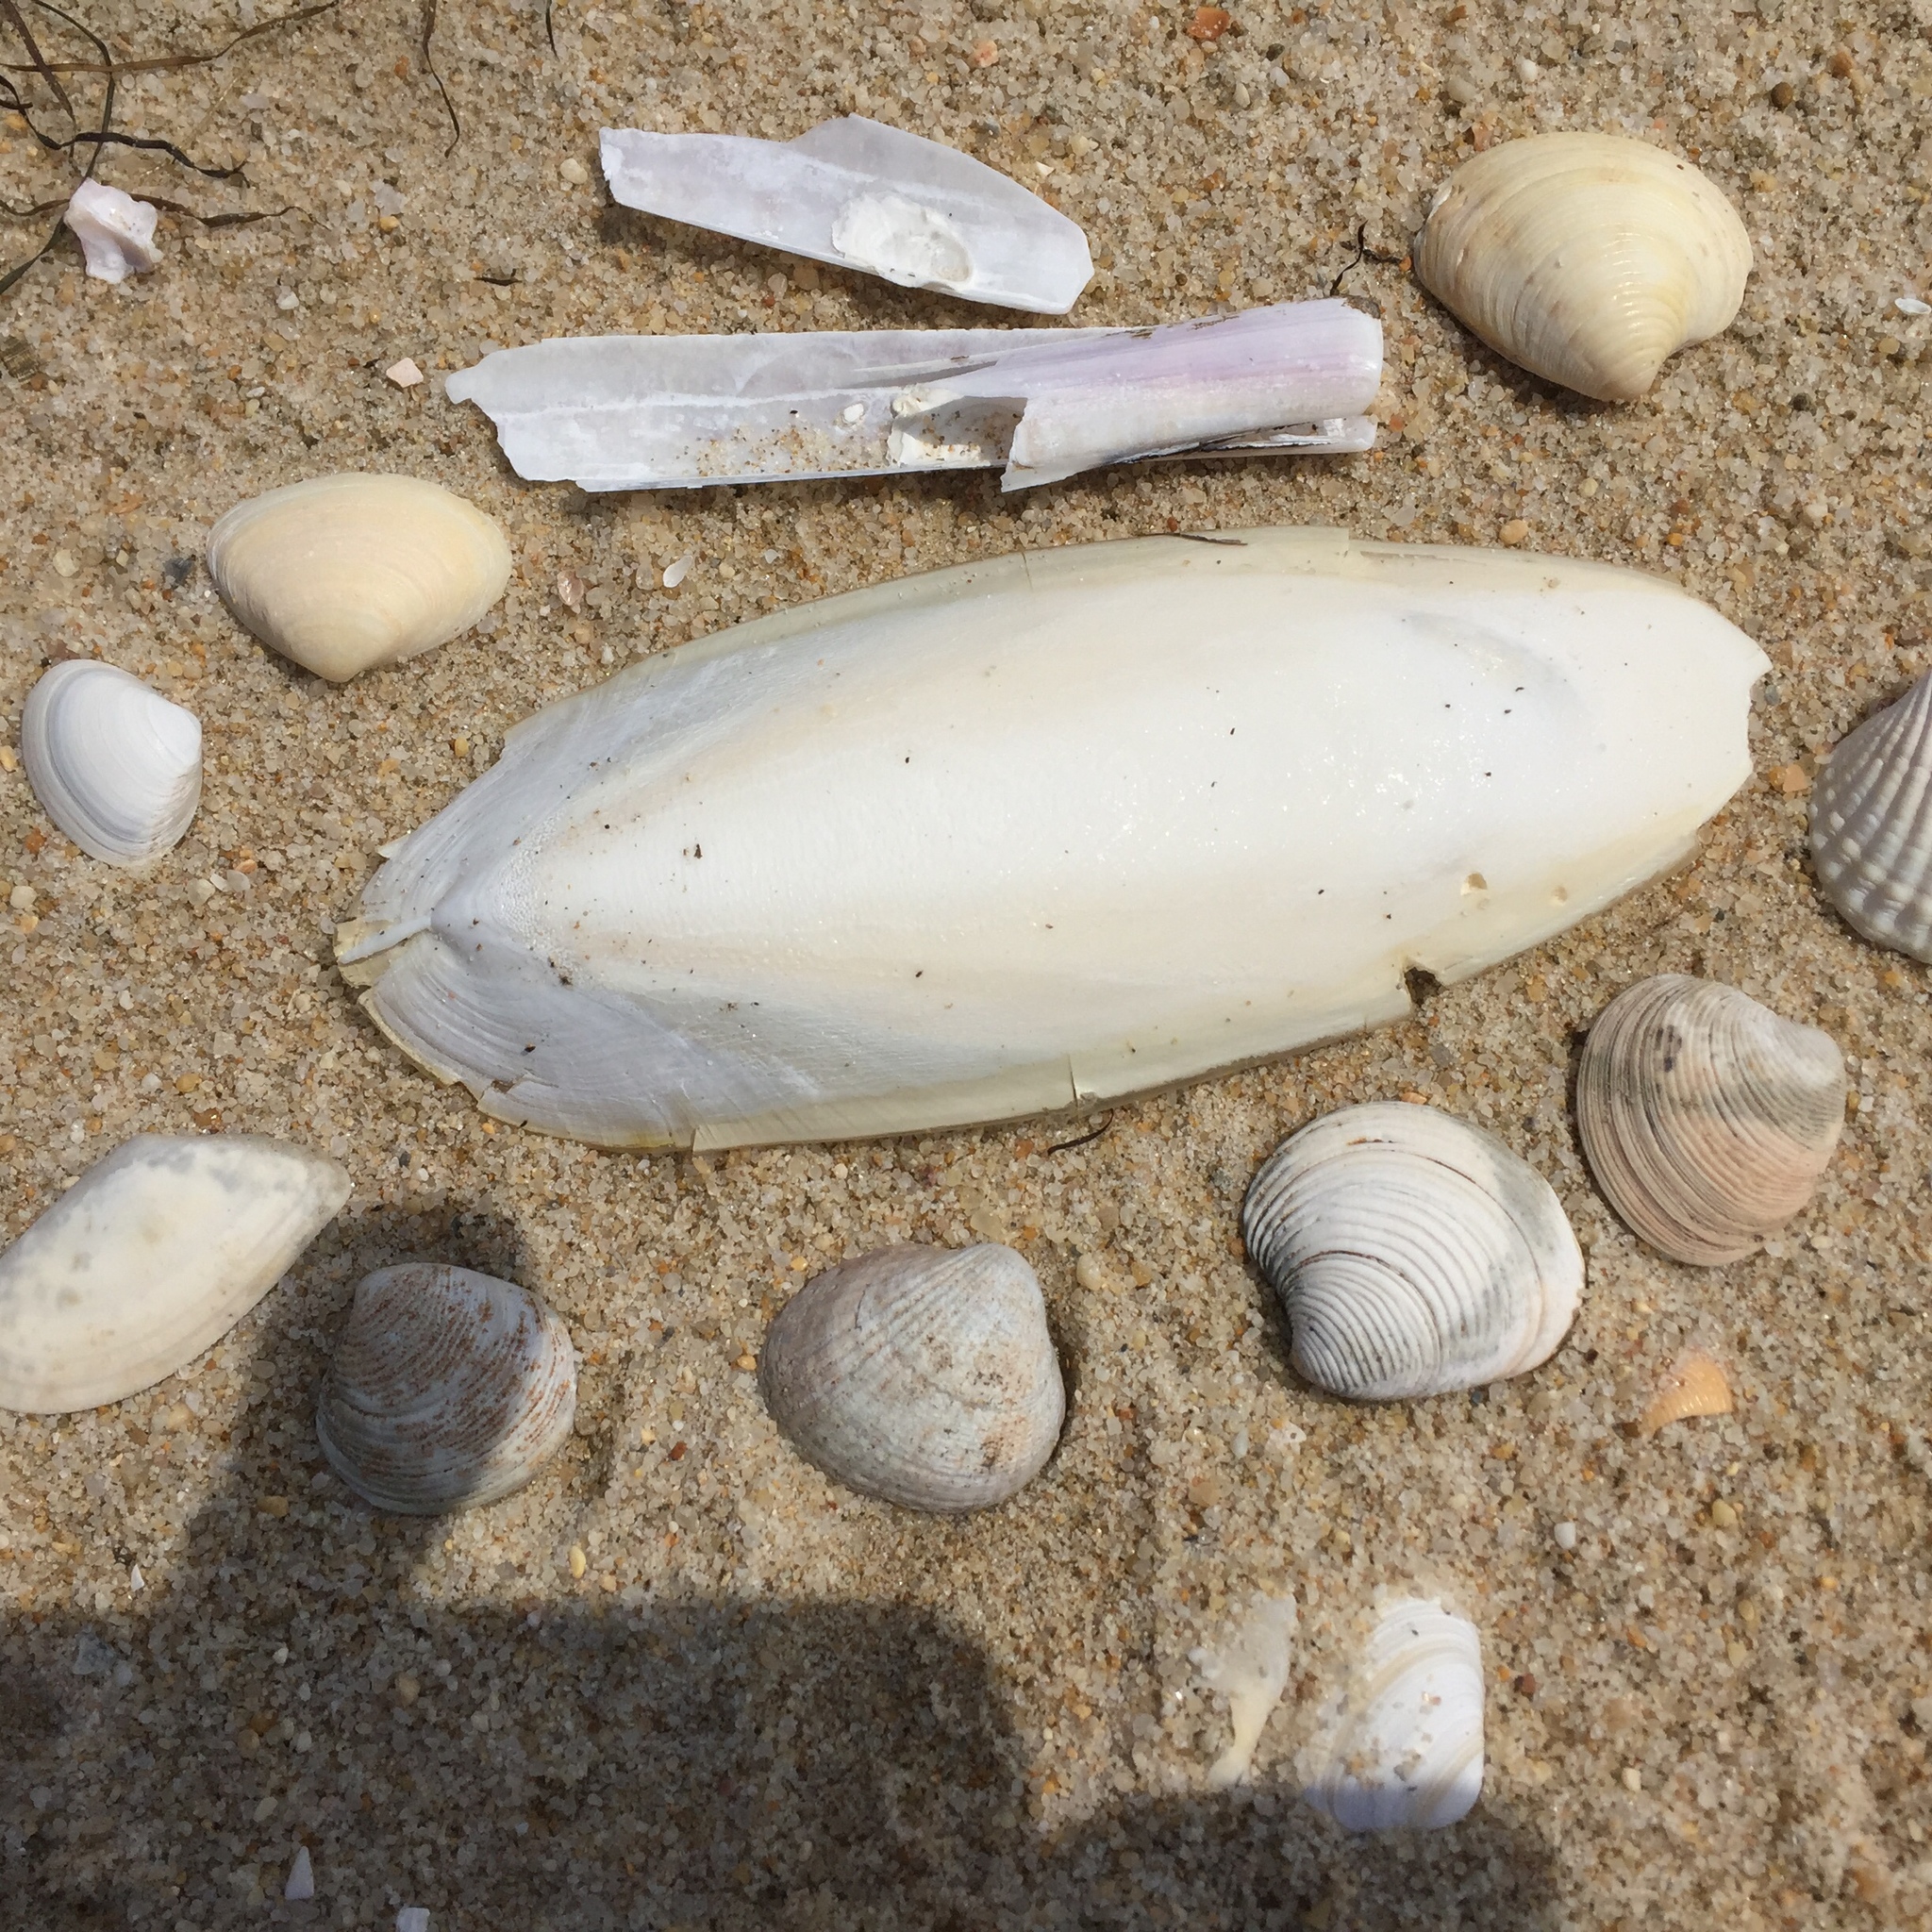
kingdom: Animalia
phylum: Mollusca
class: Bivalvia
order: Cardiida
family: Cardiidae
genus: Cerastoderma
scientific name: Cerastoderma edule
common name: Common cockle
